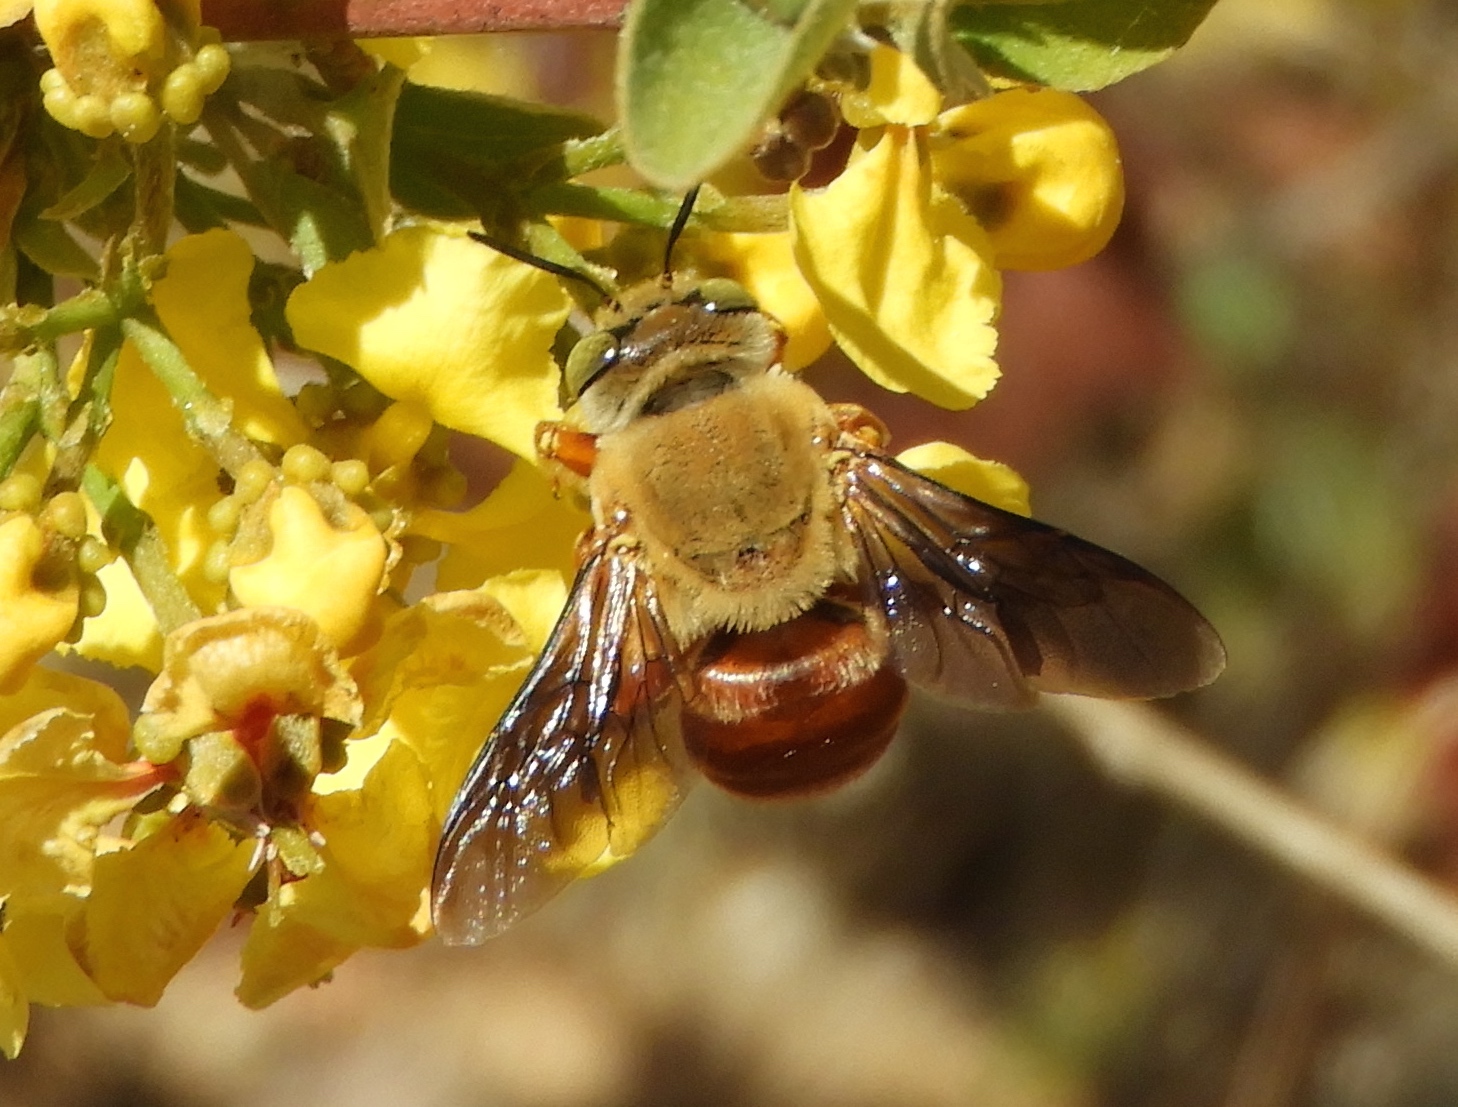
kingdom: Animalia
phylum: Arthropoda
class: Insecta
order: Hymenoptera
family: Apidae
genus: Centris
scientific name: Centris eurypatana
